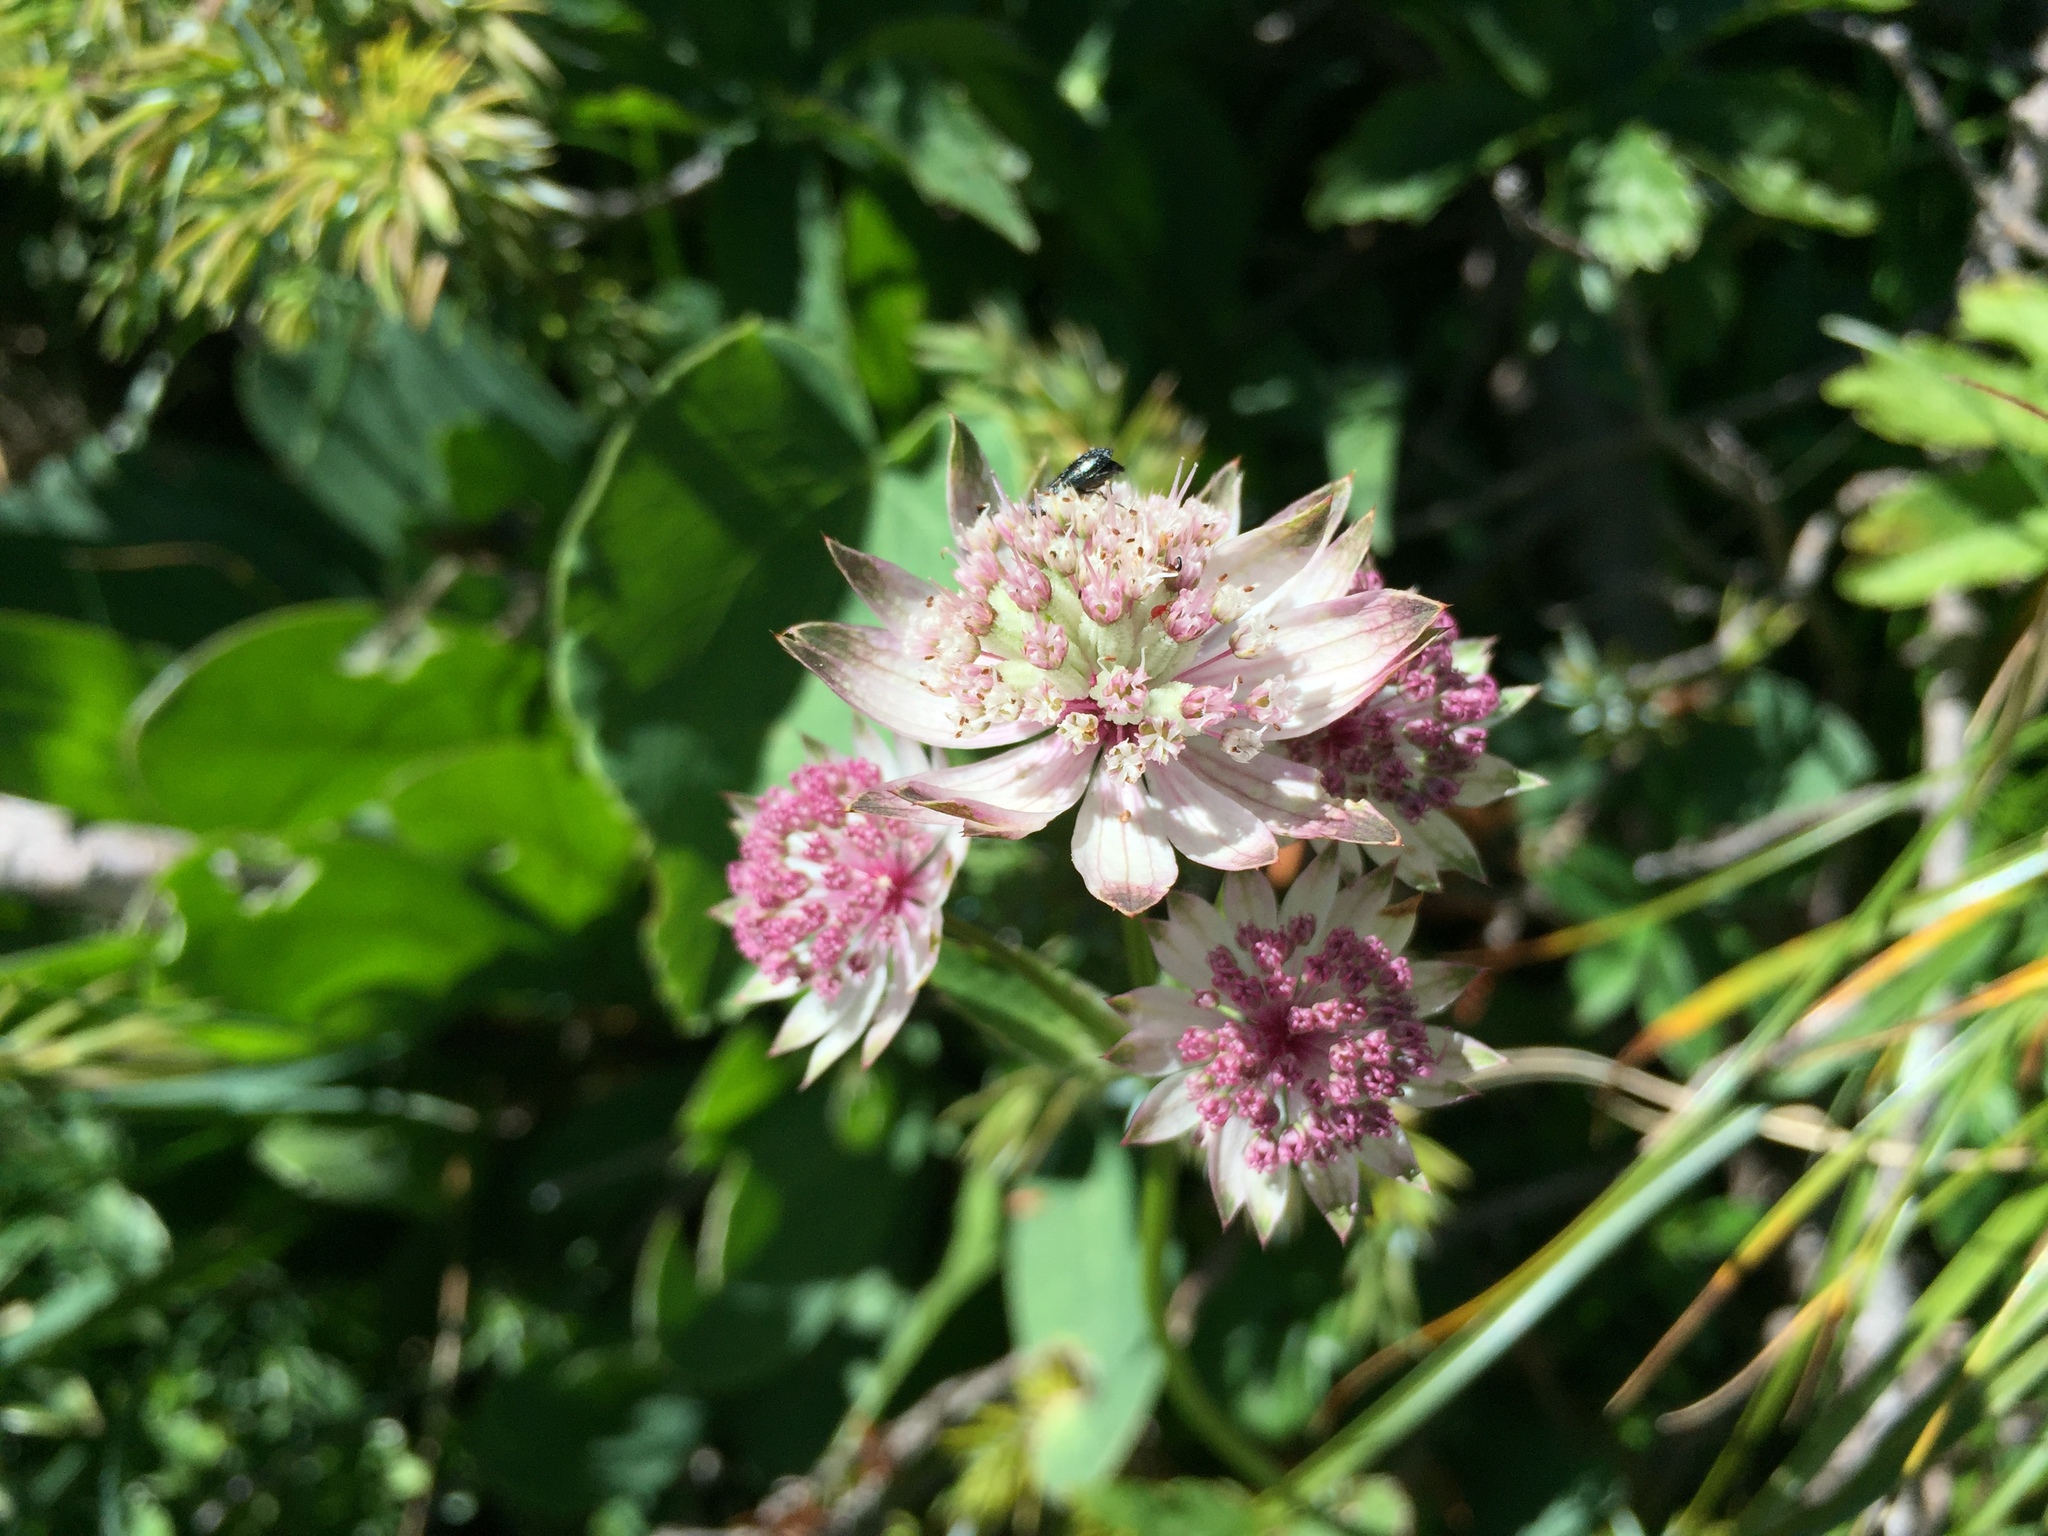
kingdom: Plantae
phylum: Tracheophyta
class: Magnoliopsida
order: Apiales
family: Apiaceae
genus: Astrantia
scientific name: Astrantia major
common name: Greater masterwort
